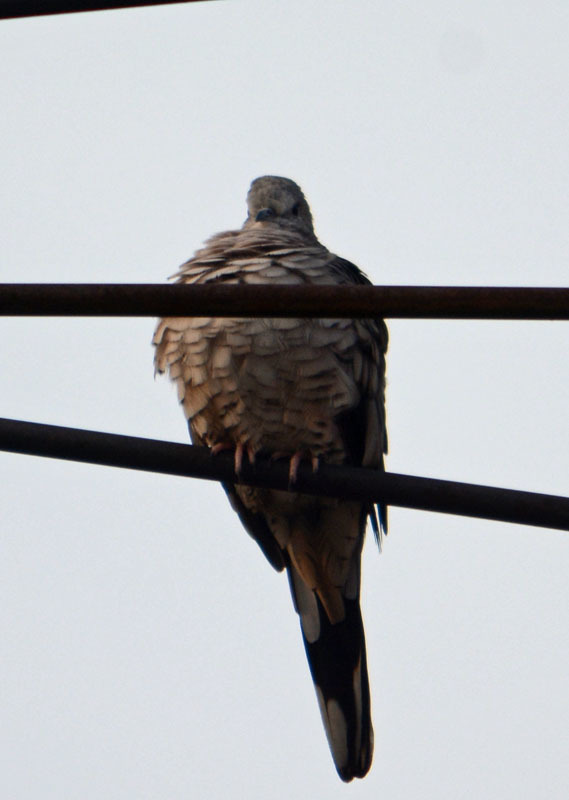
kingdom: Animalia
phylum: Chordata
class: Aves
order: Columbiformes
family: Columbidae
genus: Columbina
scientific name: Columbina inca
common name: Inca dove
